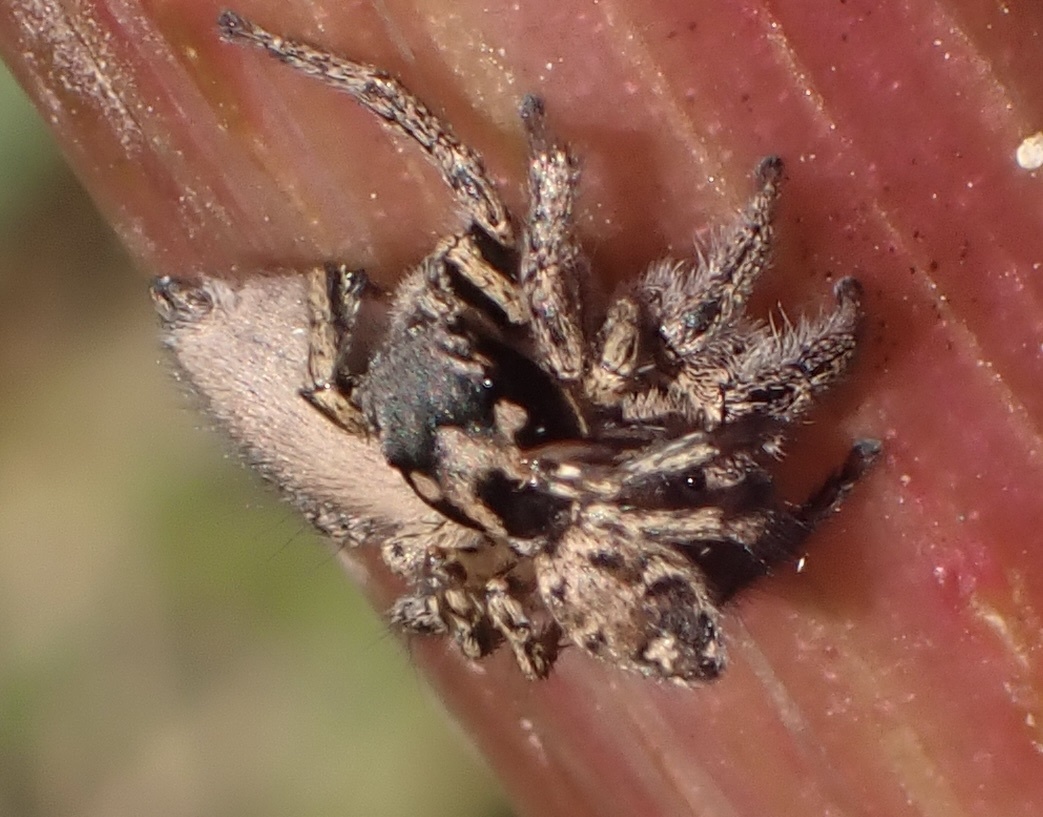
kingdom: Animalia
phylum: Arthropoda
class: Arachnida
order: Araneae
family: Salticidae
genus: Habronattus
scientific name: Habronattus coecatus
